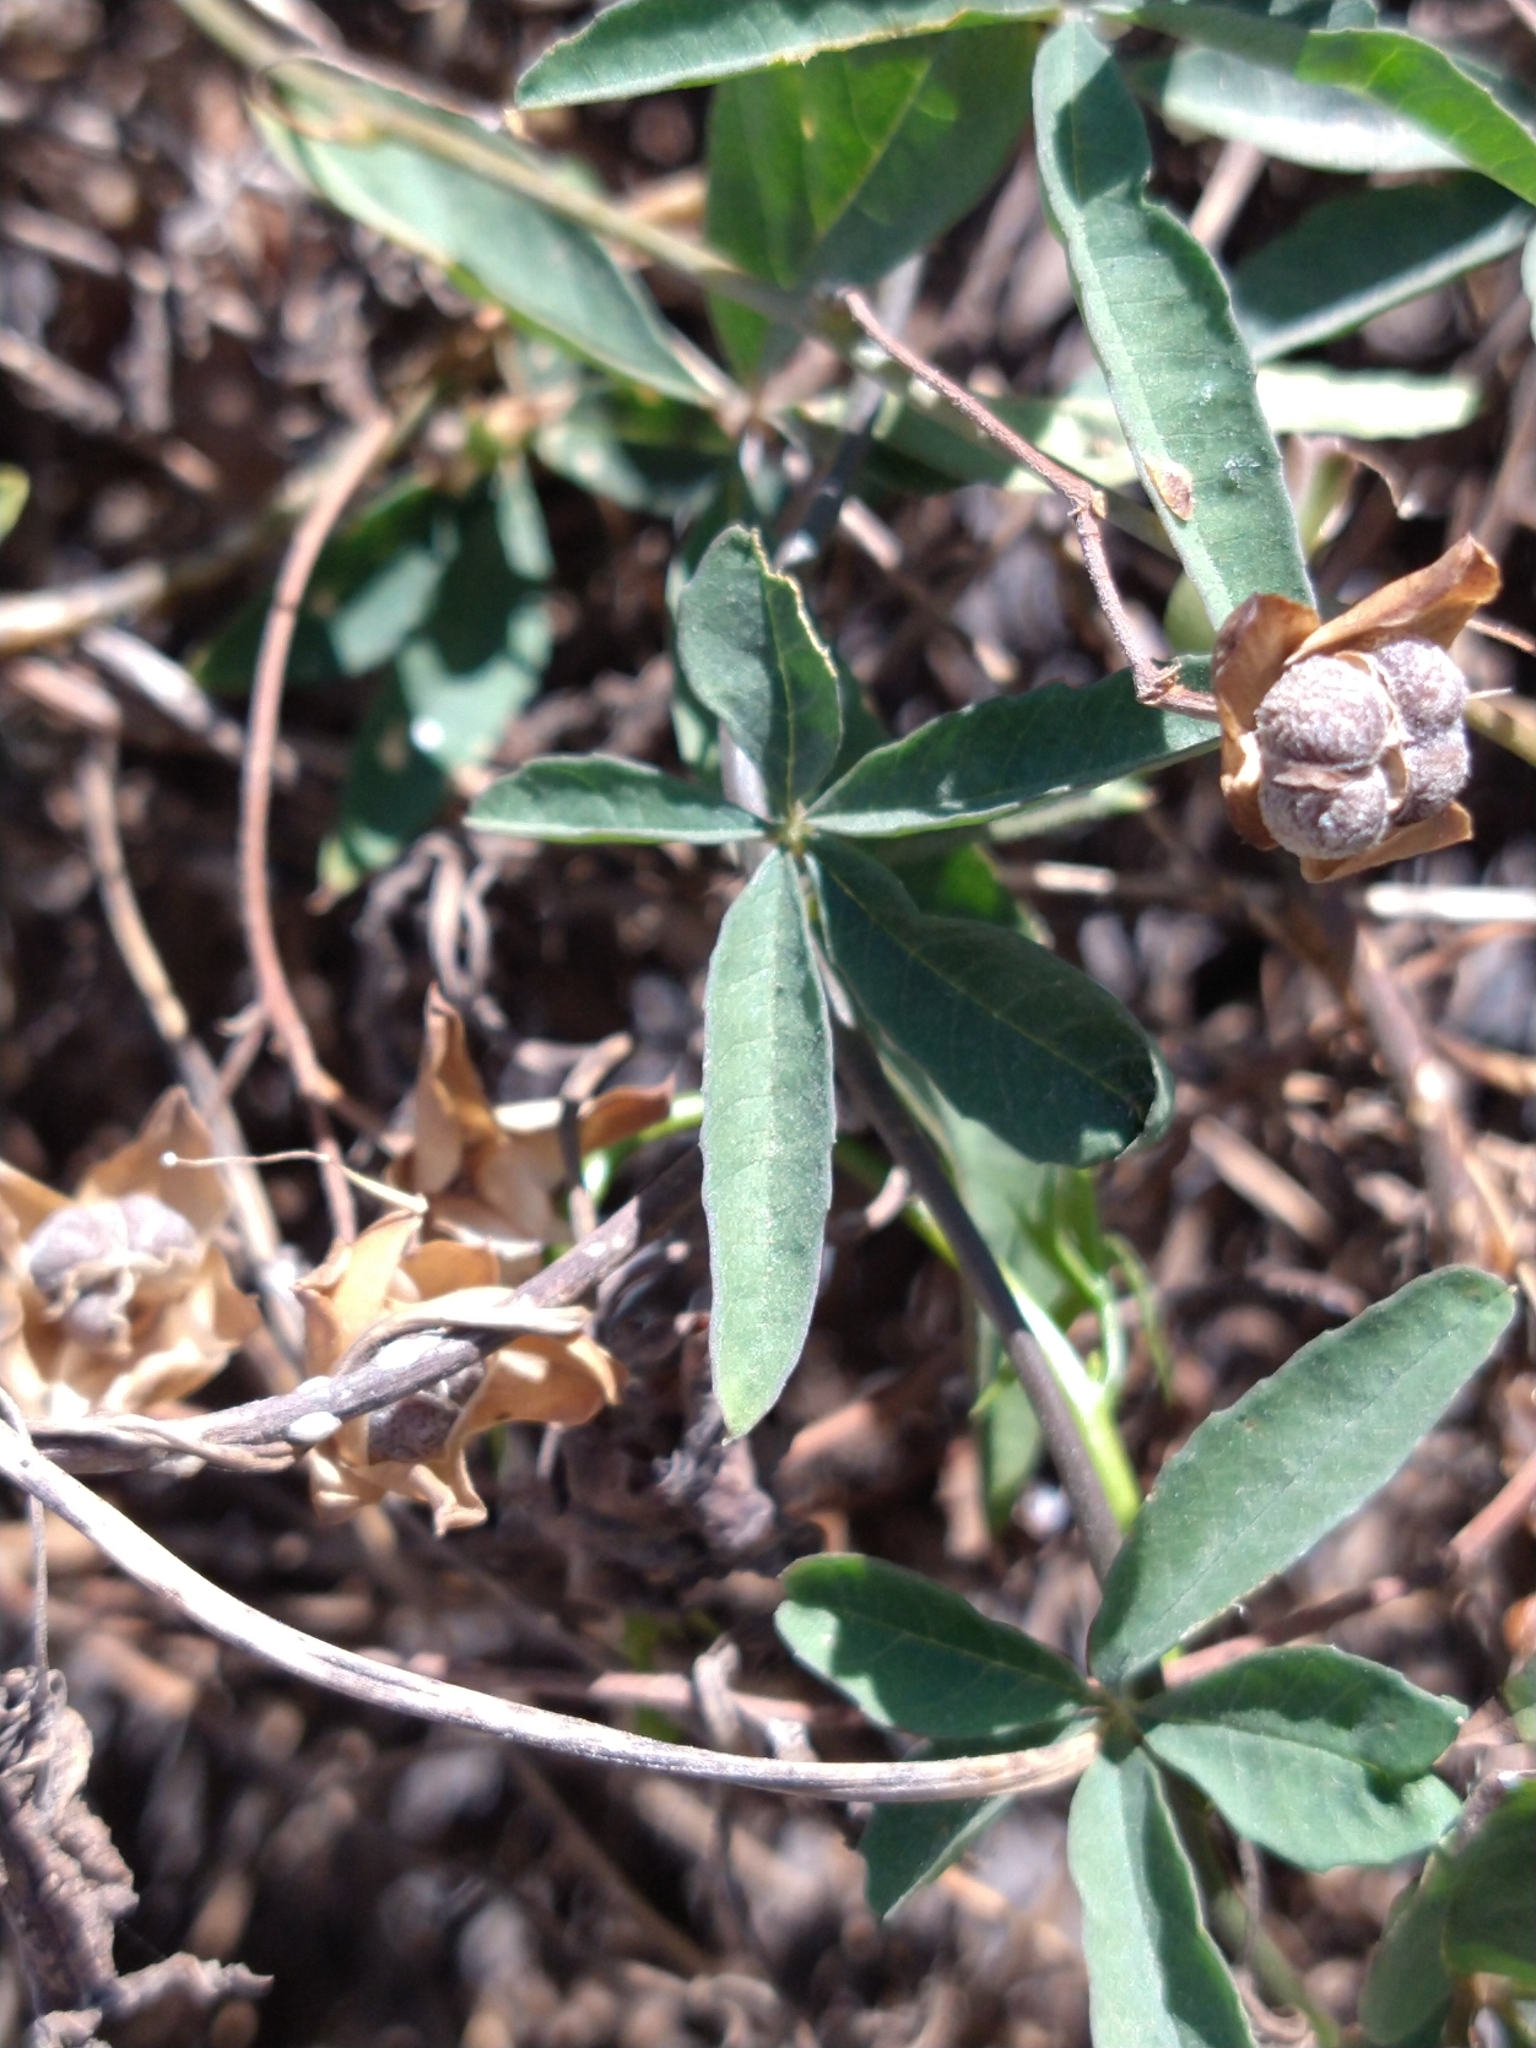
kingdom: Plantae
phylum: Tracheophyta
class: Magnoliopsida
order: Solanales
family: Convolvulaceae
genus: Distimake
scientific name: Distimake quinquefolius
